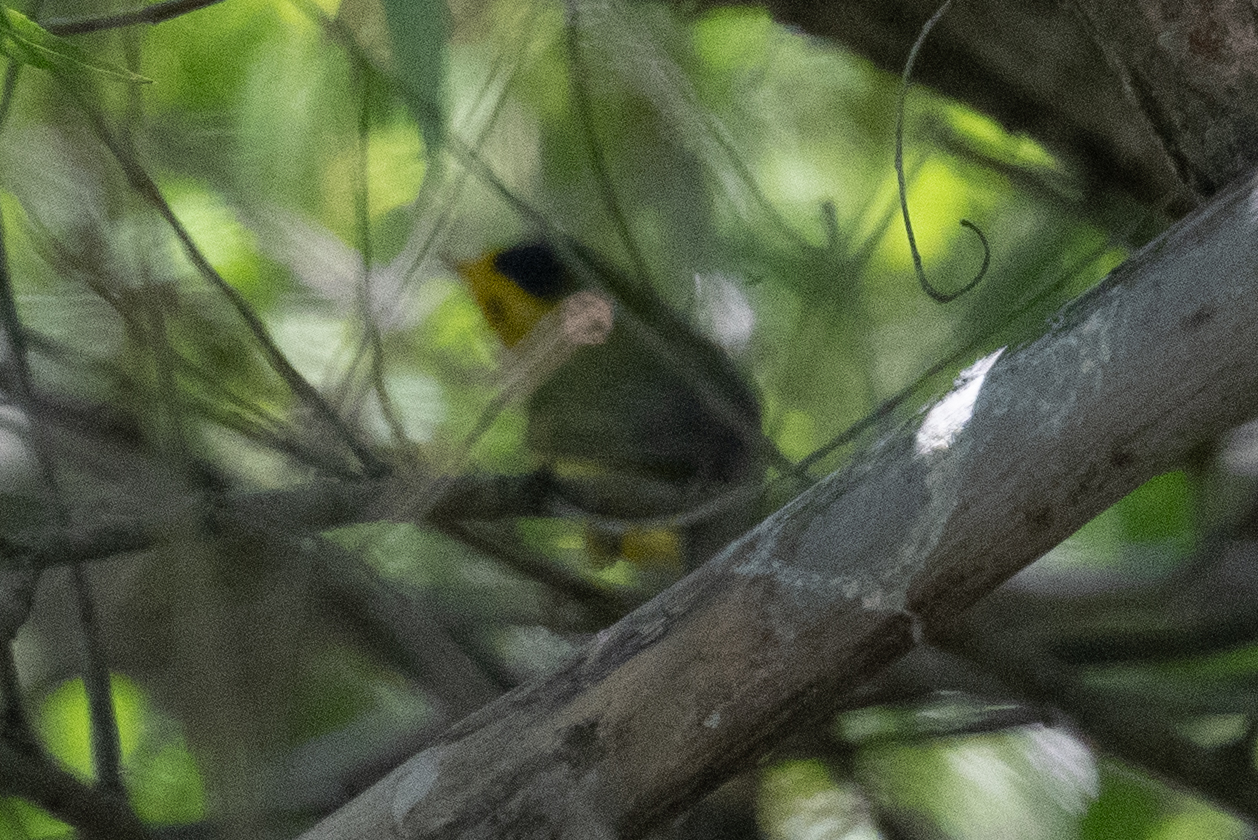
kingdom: Animalia
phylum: Chordata
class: Aves
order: Passeriformes
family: Parulidae
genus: Cardellina
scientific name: Cardellina pusilla
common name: Wilson's warbler
